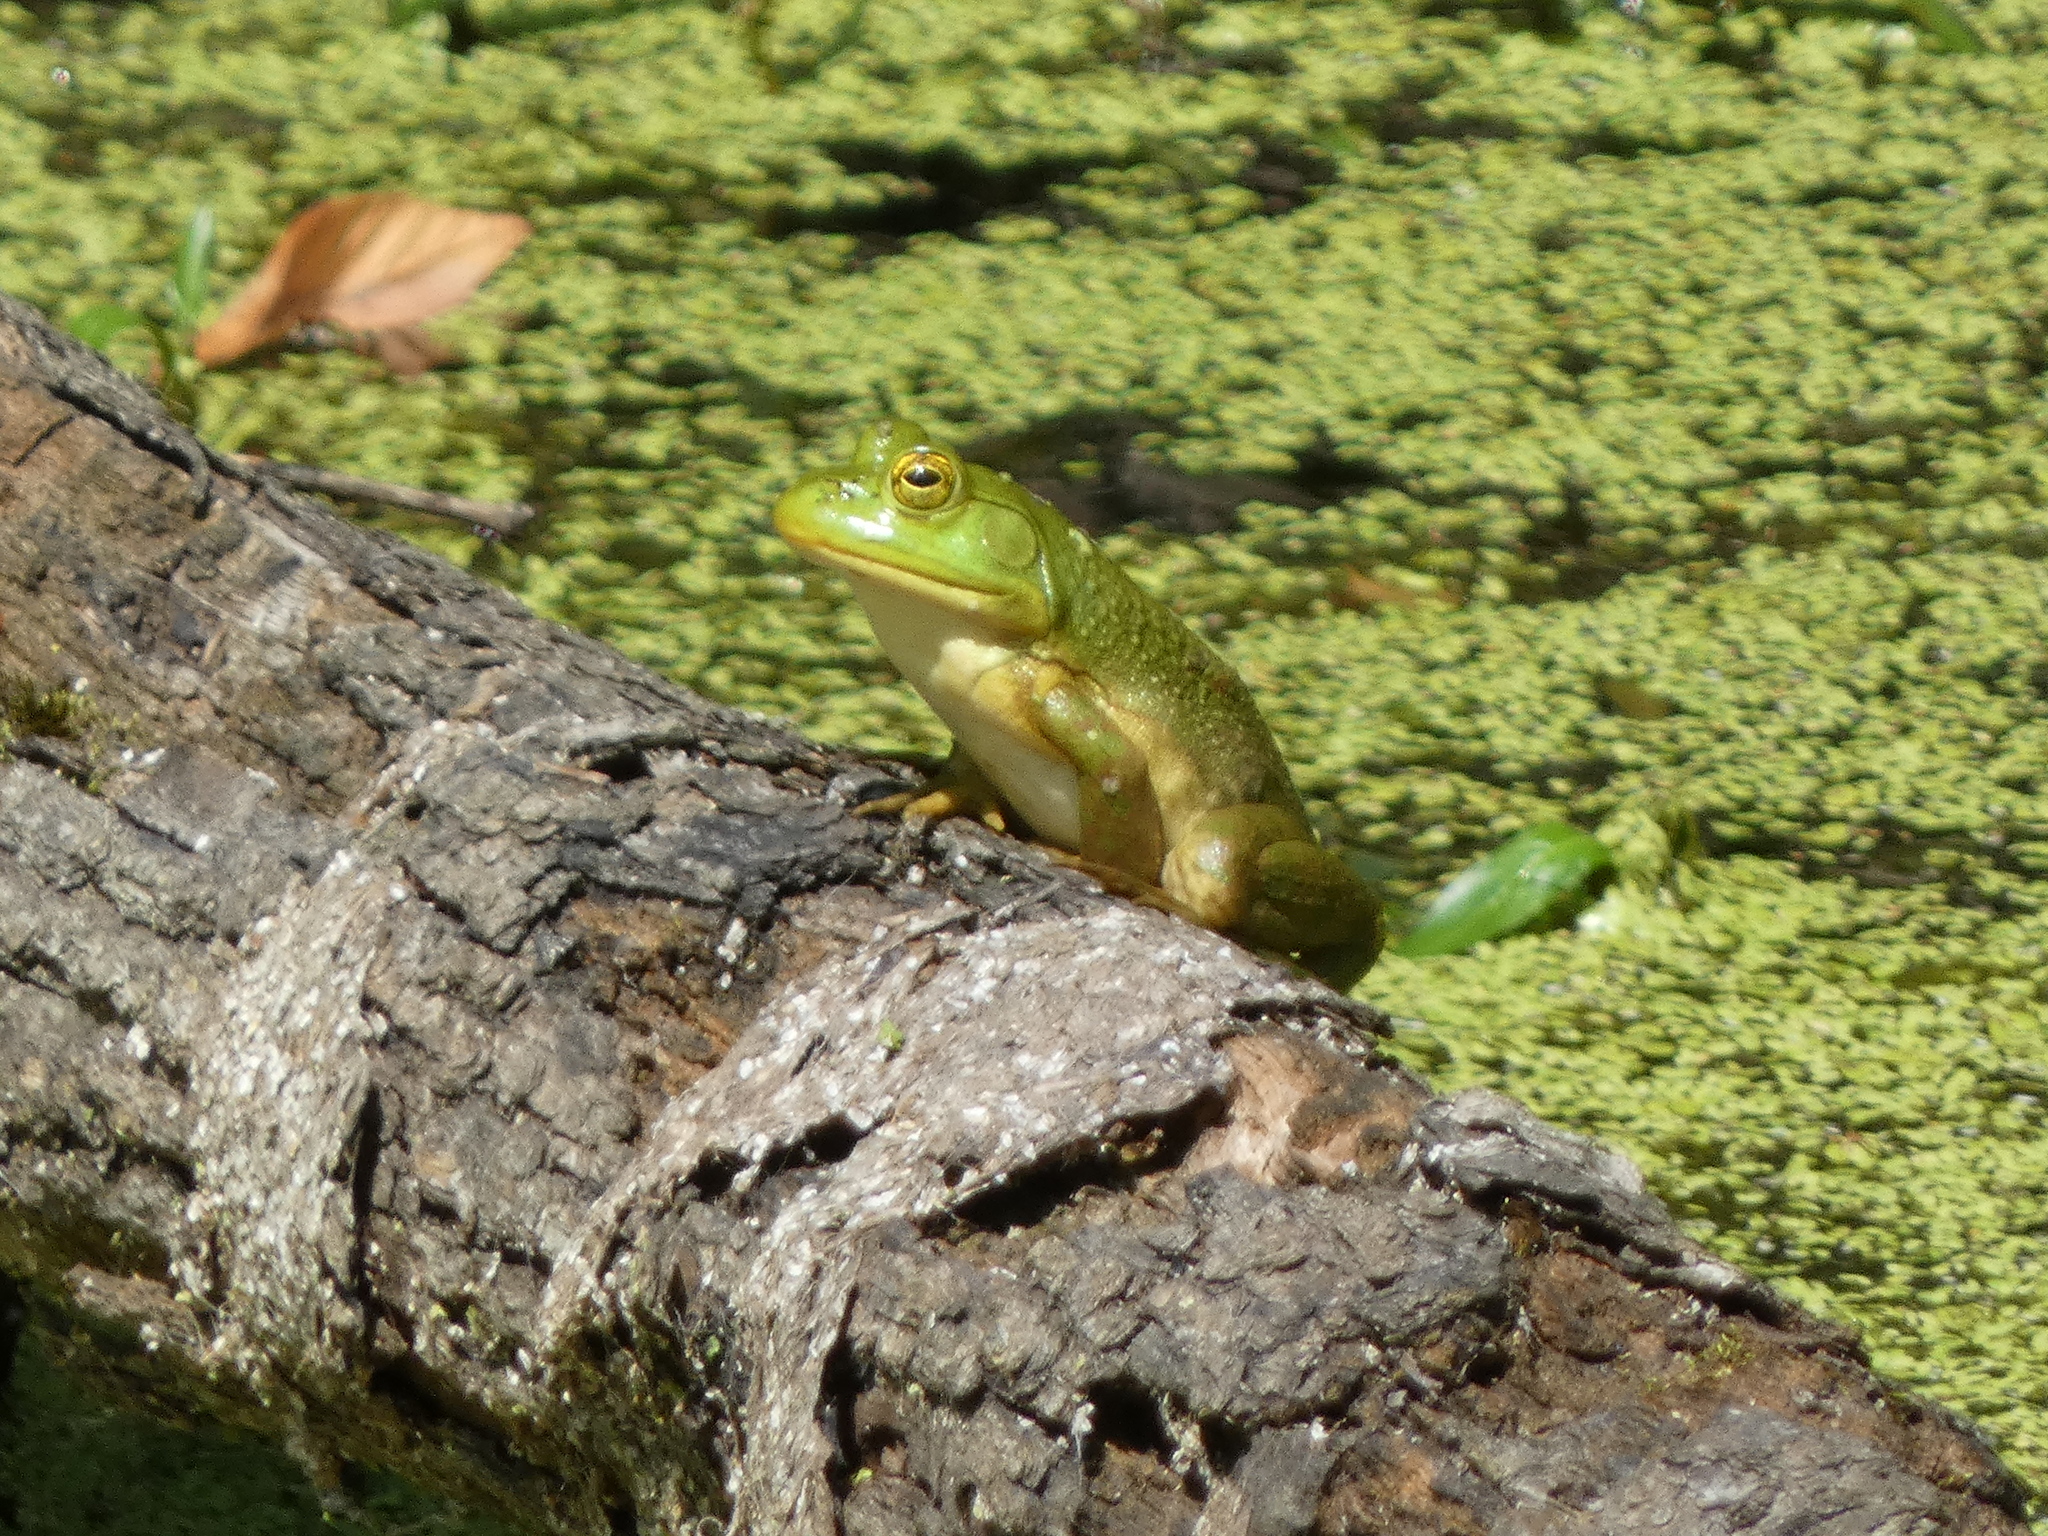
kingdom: Animalia
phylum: Chordata
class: Amphibia
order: Anura
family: Ranidae
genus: Lithobates
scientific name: Lithobates catesbeianus
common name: American bullfrog
